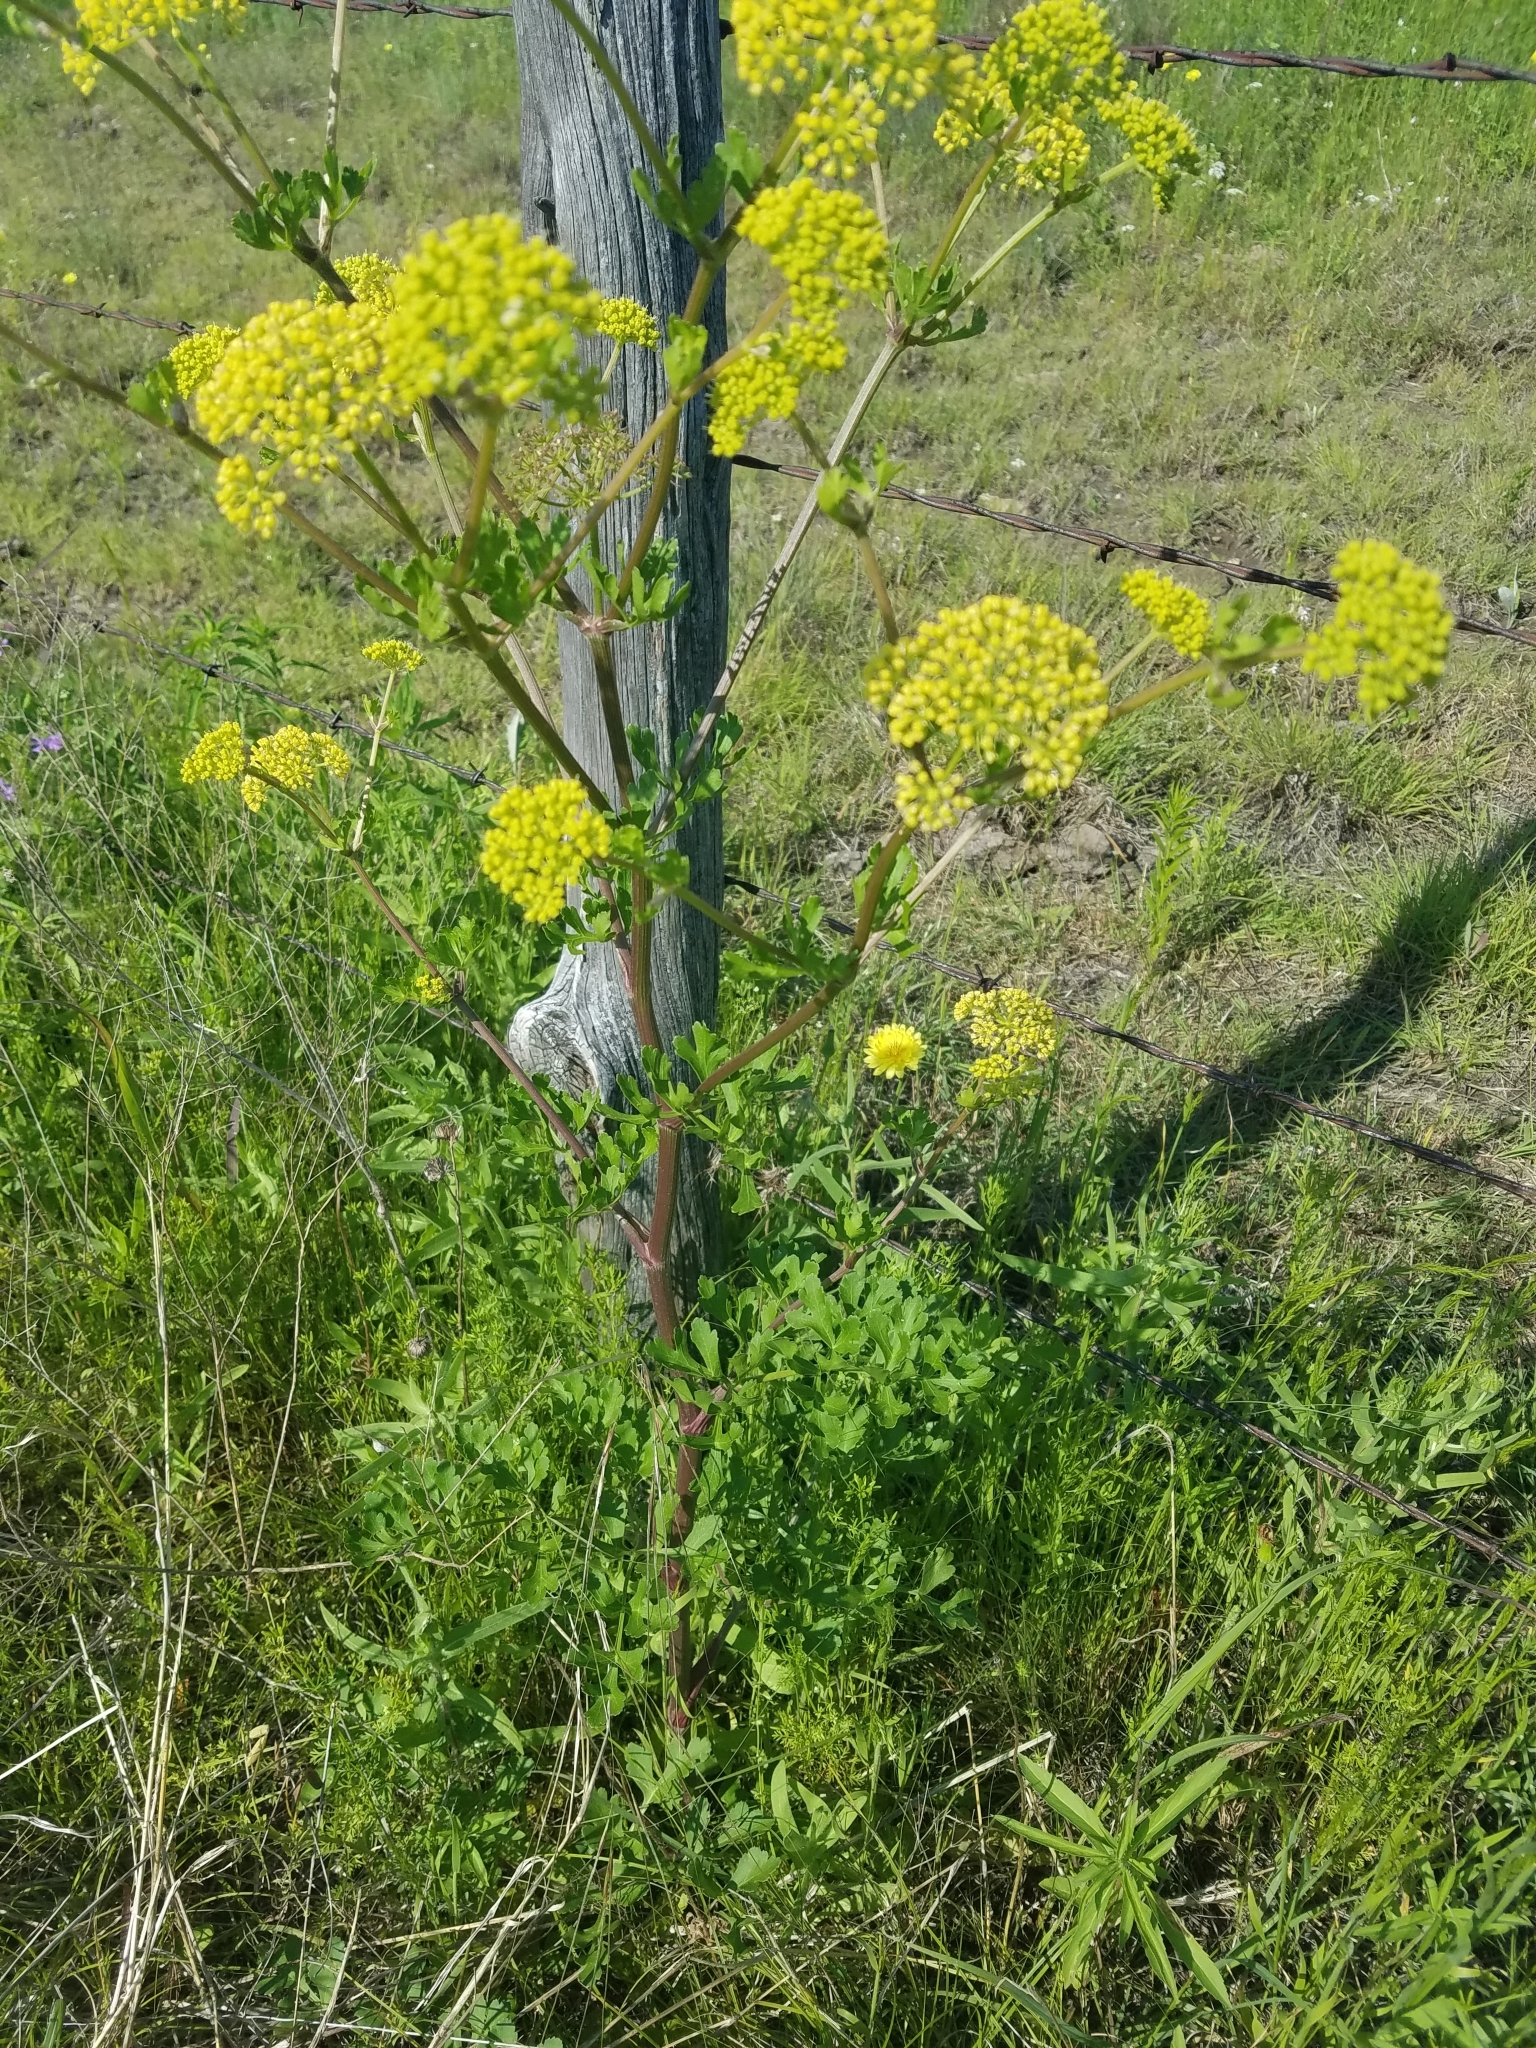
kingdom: Plantae
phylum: Tracheophyta
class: Magnoliopsida
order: Apiales
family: Apiaceae
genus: Polytaenia
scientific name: Polytaenia texana
